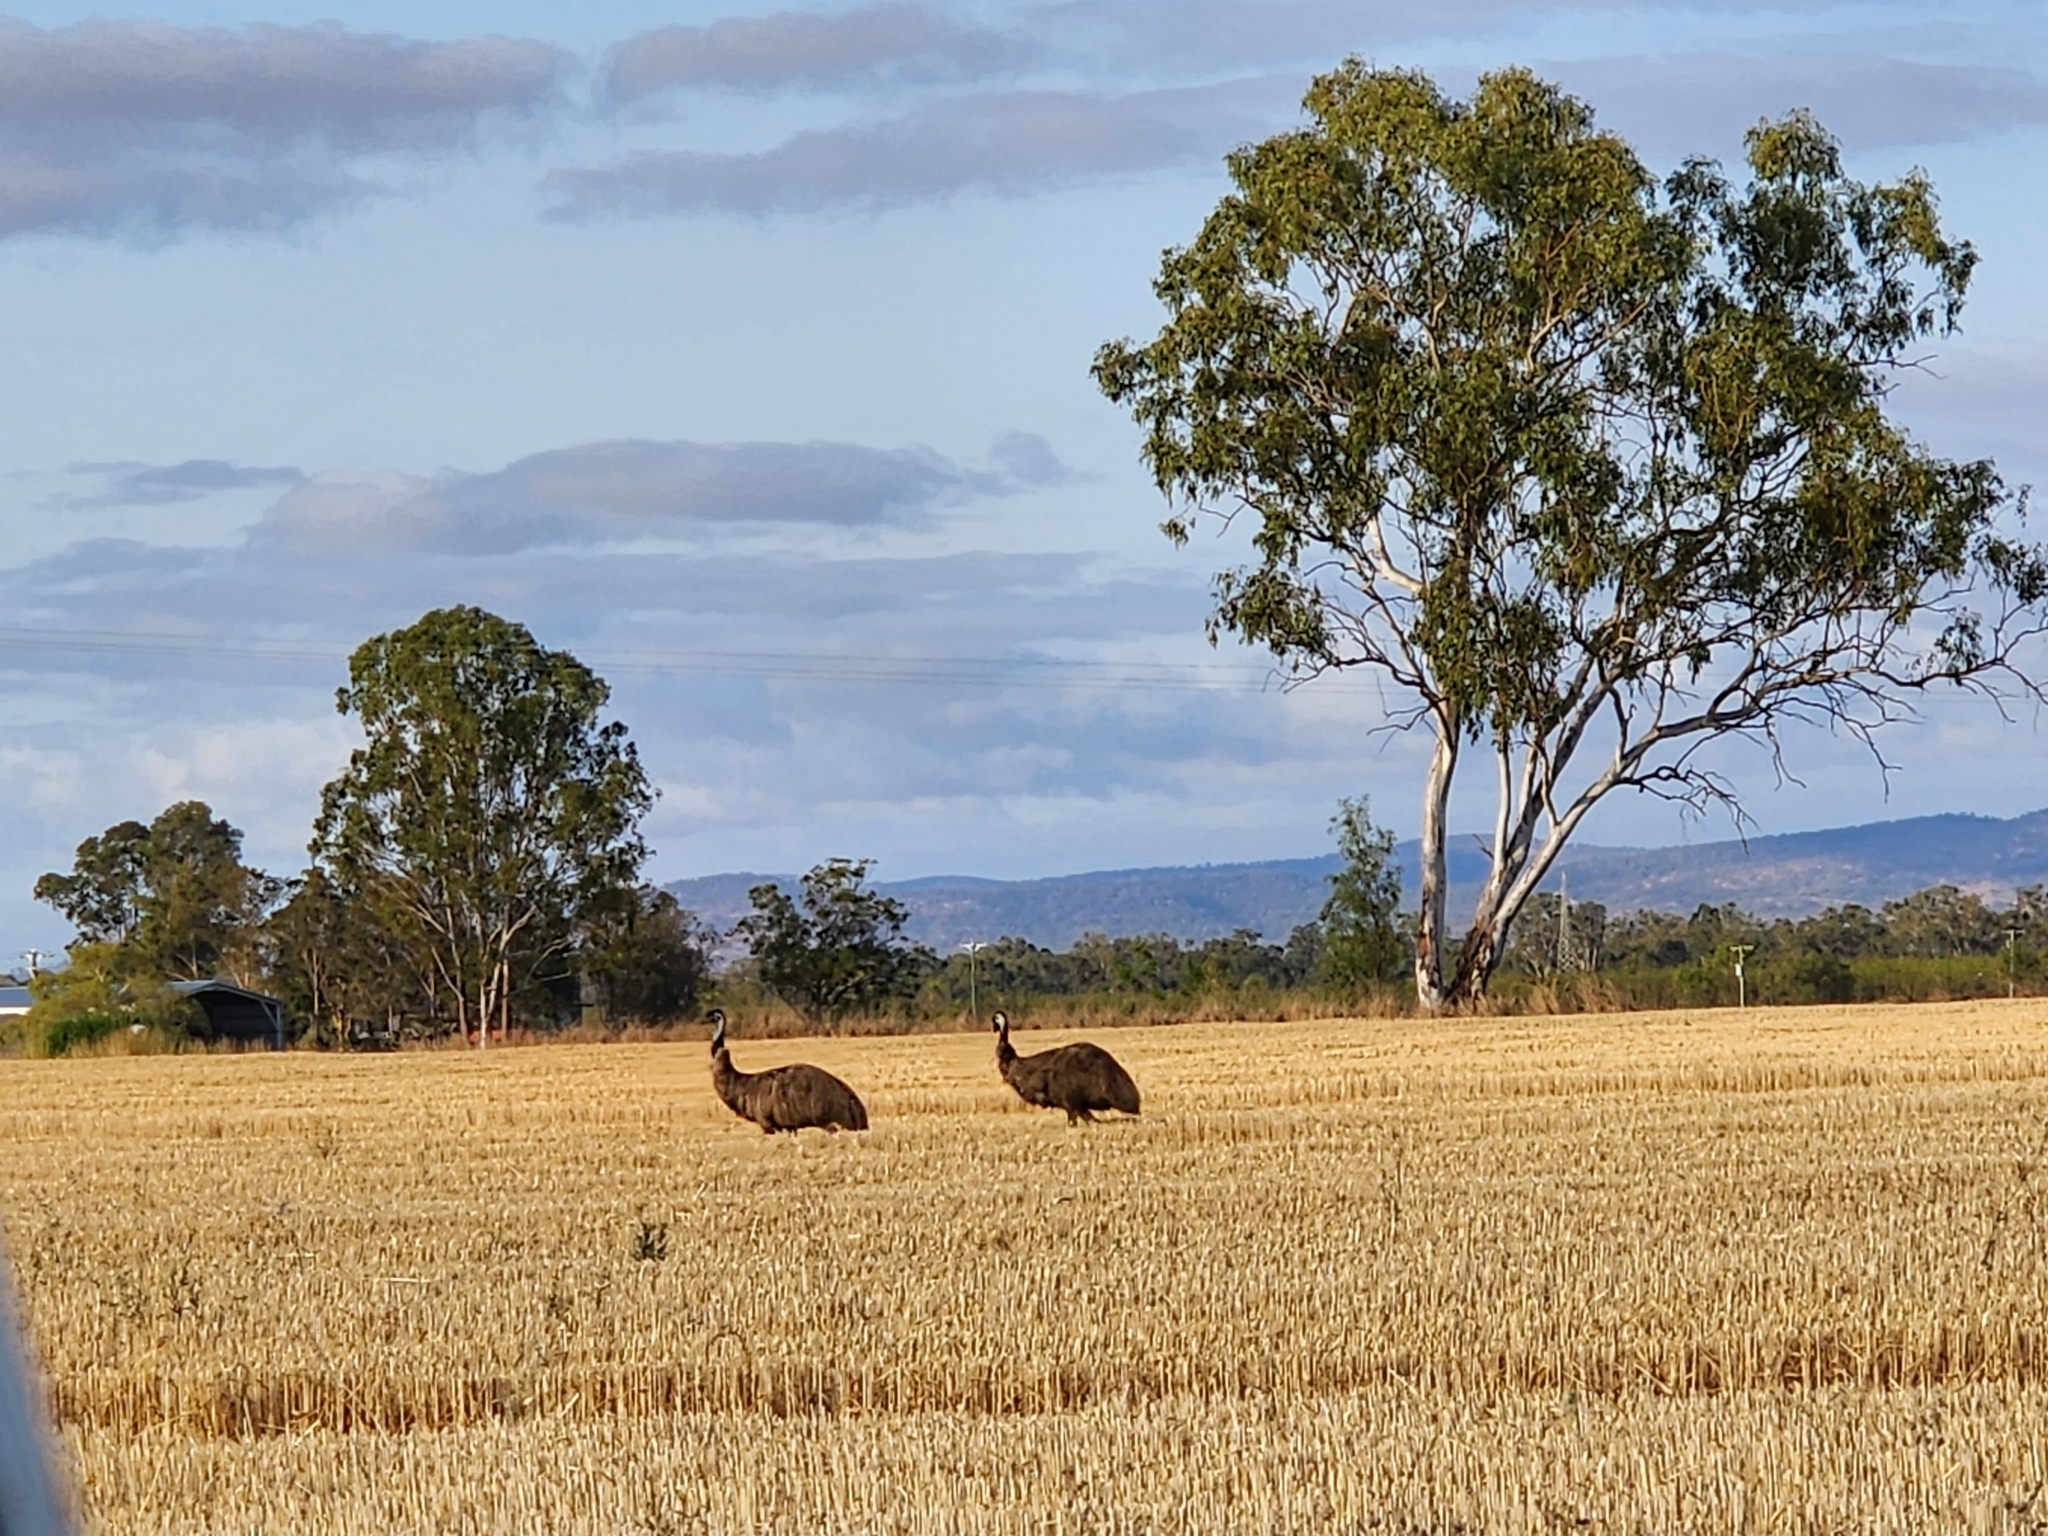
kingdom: Animalia
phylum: Chordata
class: Aves
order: Casuariiformes
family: Dromaiidae
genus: Dromaius
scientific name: Dromaius novaehollandiae
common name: Emu
